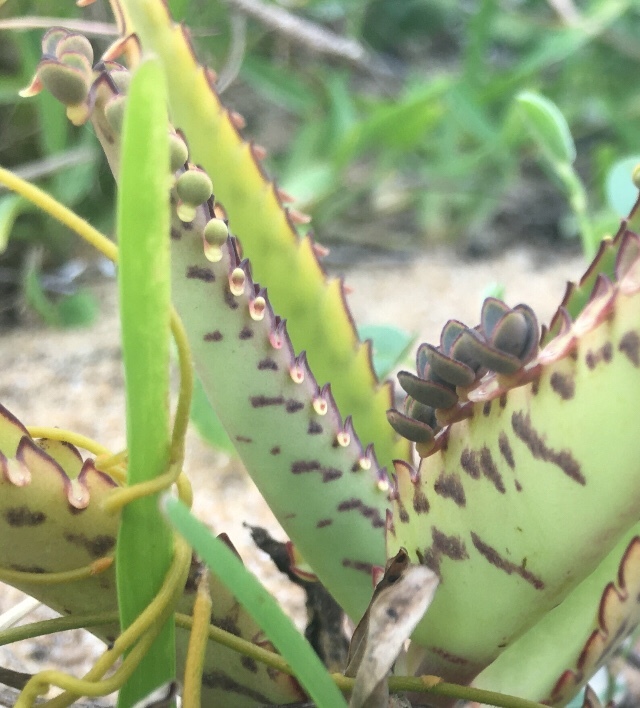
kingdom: Plantae
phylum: Tracheophyta
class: Magnoliopsida
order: Saxifragales
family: Crassulaceae
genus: Kalanchoe
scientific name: Kalanchoe daigremontiana
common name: Devil's backbone
